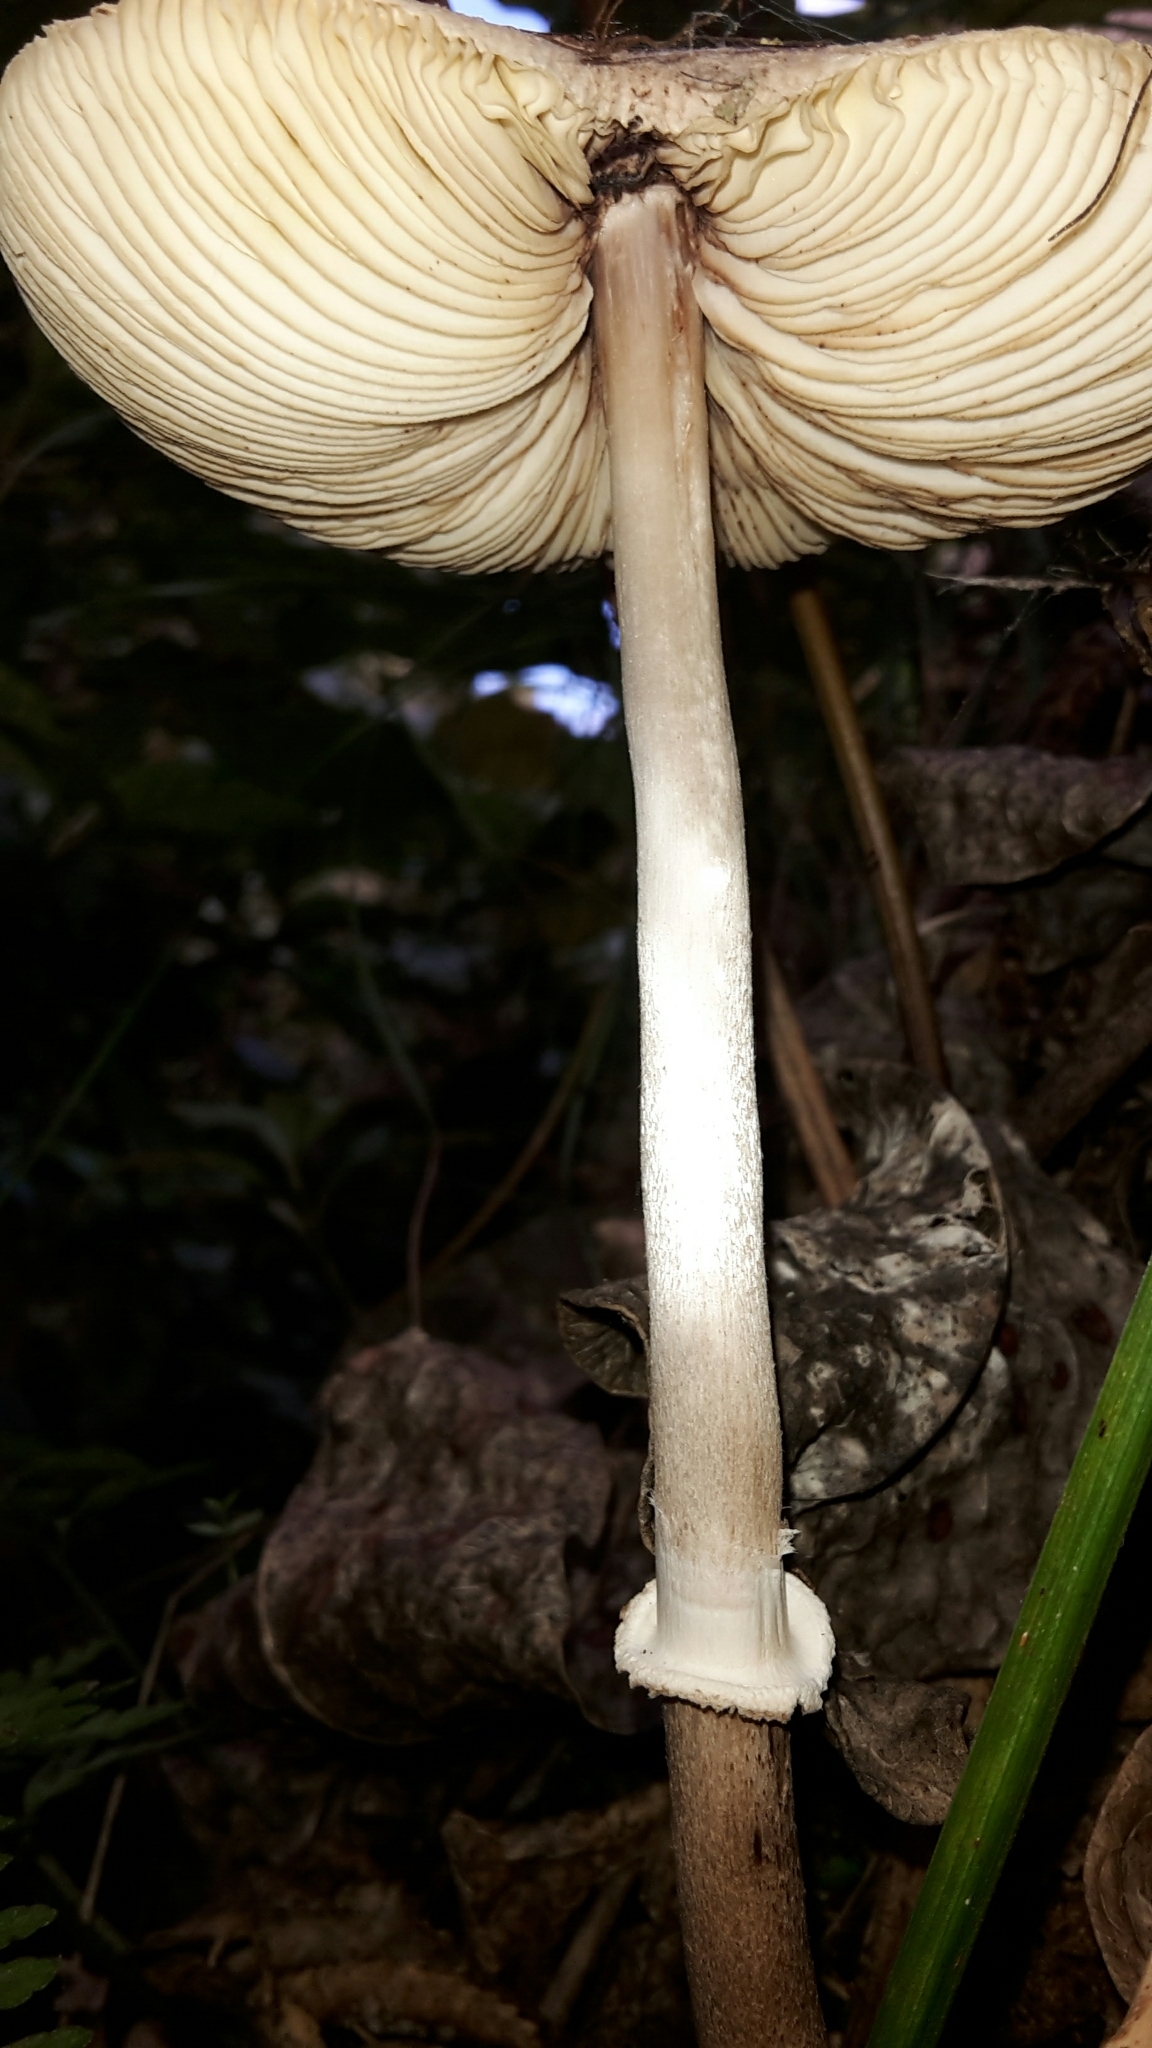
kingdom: Fungi
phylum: Basidiomycota
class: Agaricomycetes
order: Agaricales
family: Agaricaceae
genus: Macrolepiota
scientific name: Macrolepiota clelandii
